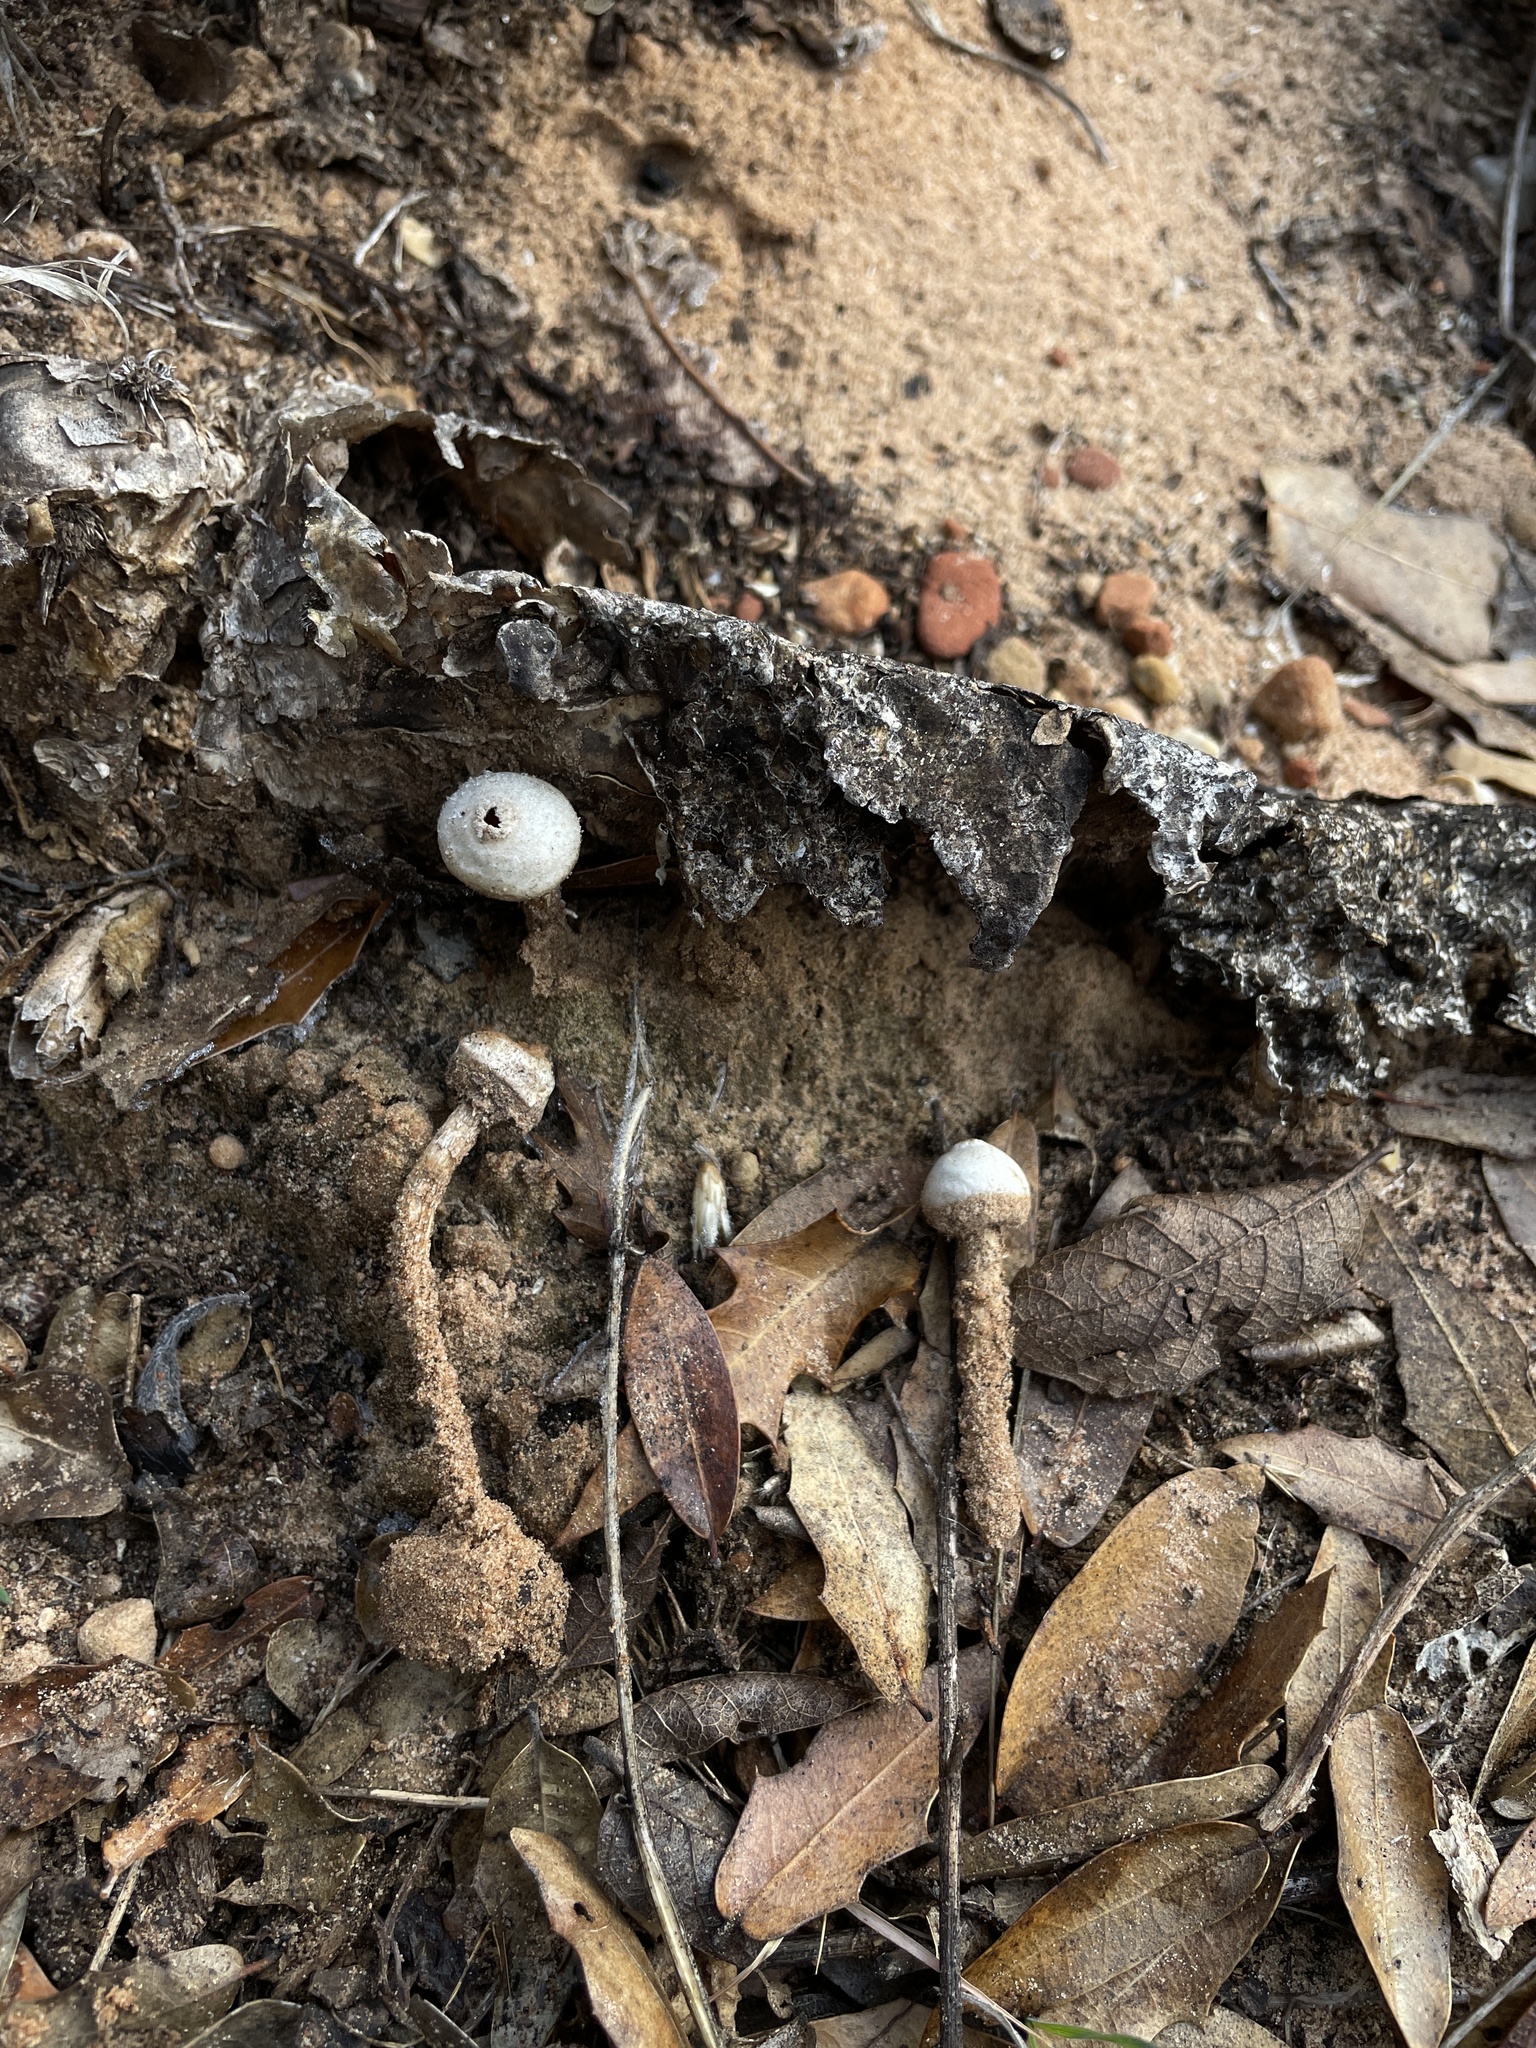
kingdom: Fungi
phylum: Basidiomycota
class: Agaricomycetes
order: Agaricales
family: Agaricaceae
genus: Tulostoma
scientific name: Tulostoma fimbriatum
